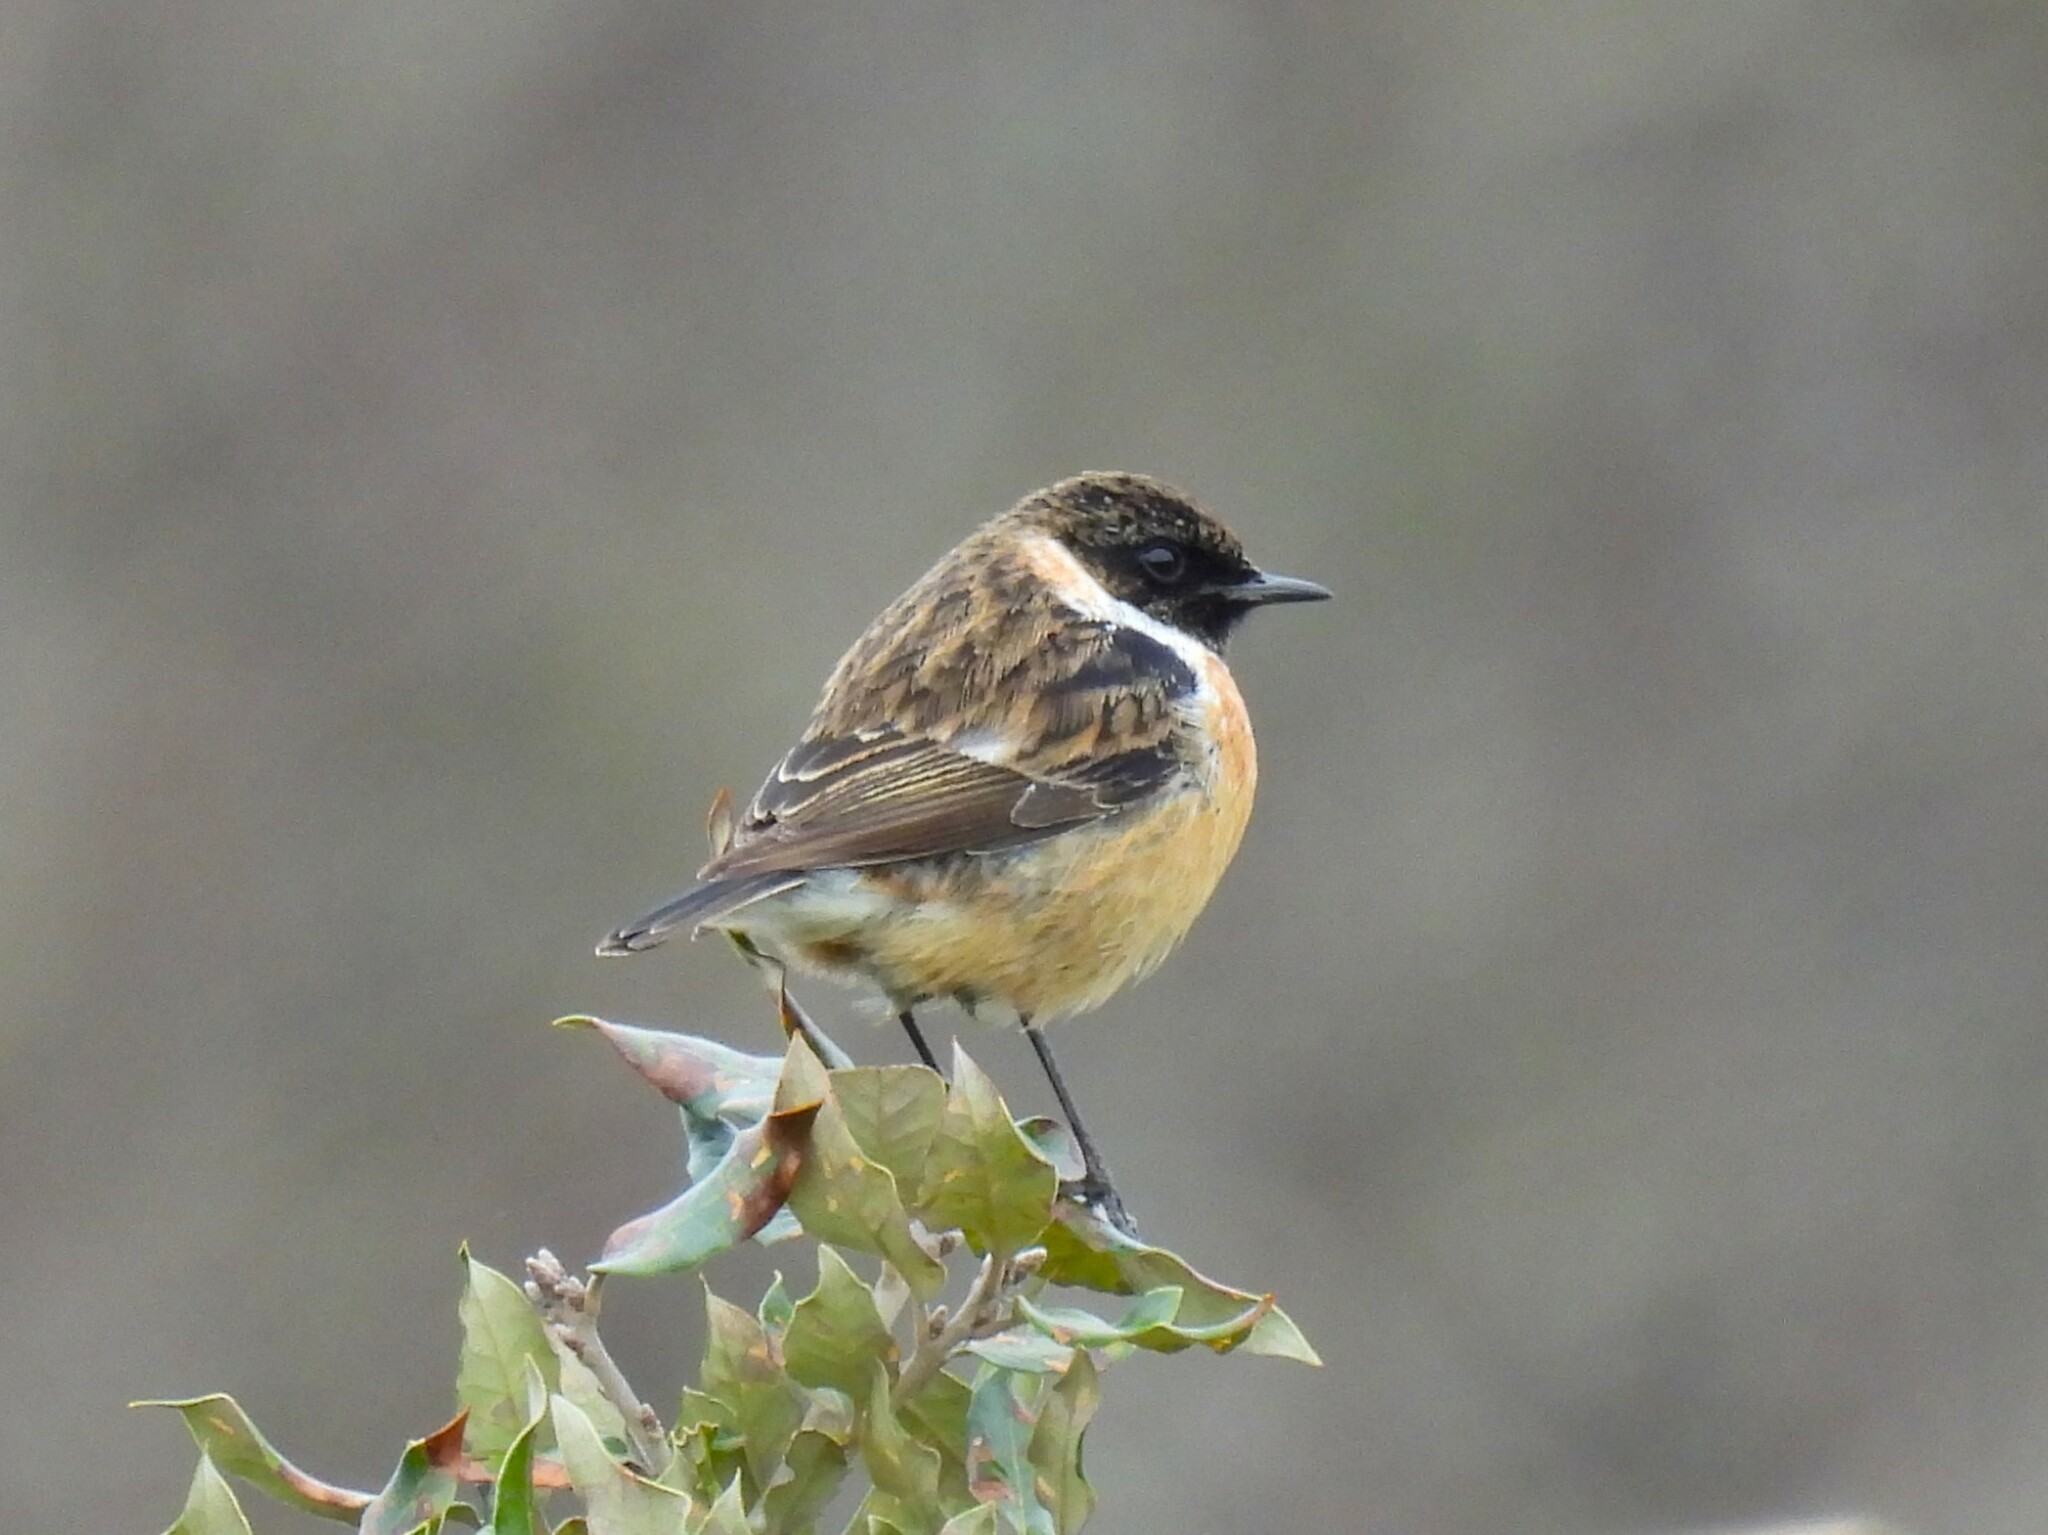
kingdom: Animalia
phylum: Chordata
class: Aves
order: Passeriformes
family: Muscicapidae
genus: Saxicola
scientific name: Saxicola rubicola
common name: European stonechat
